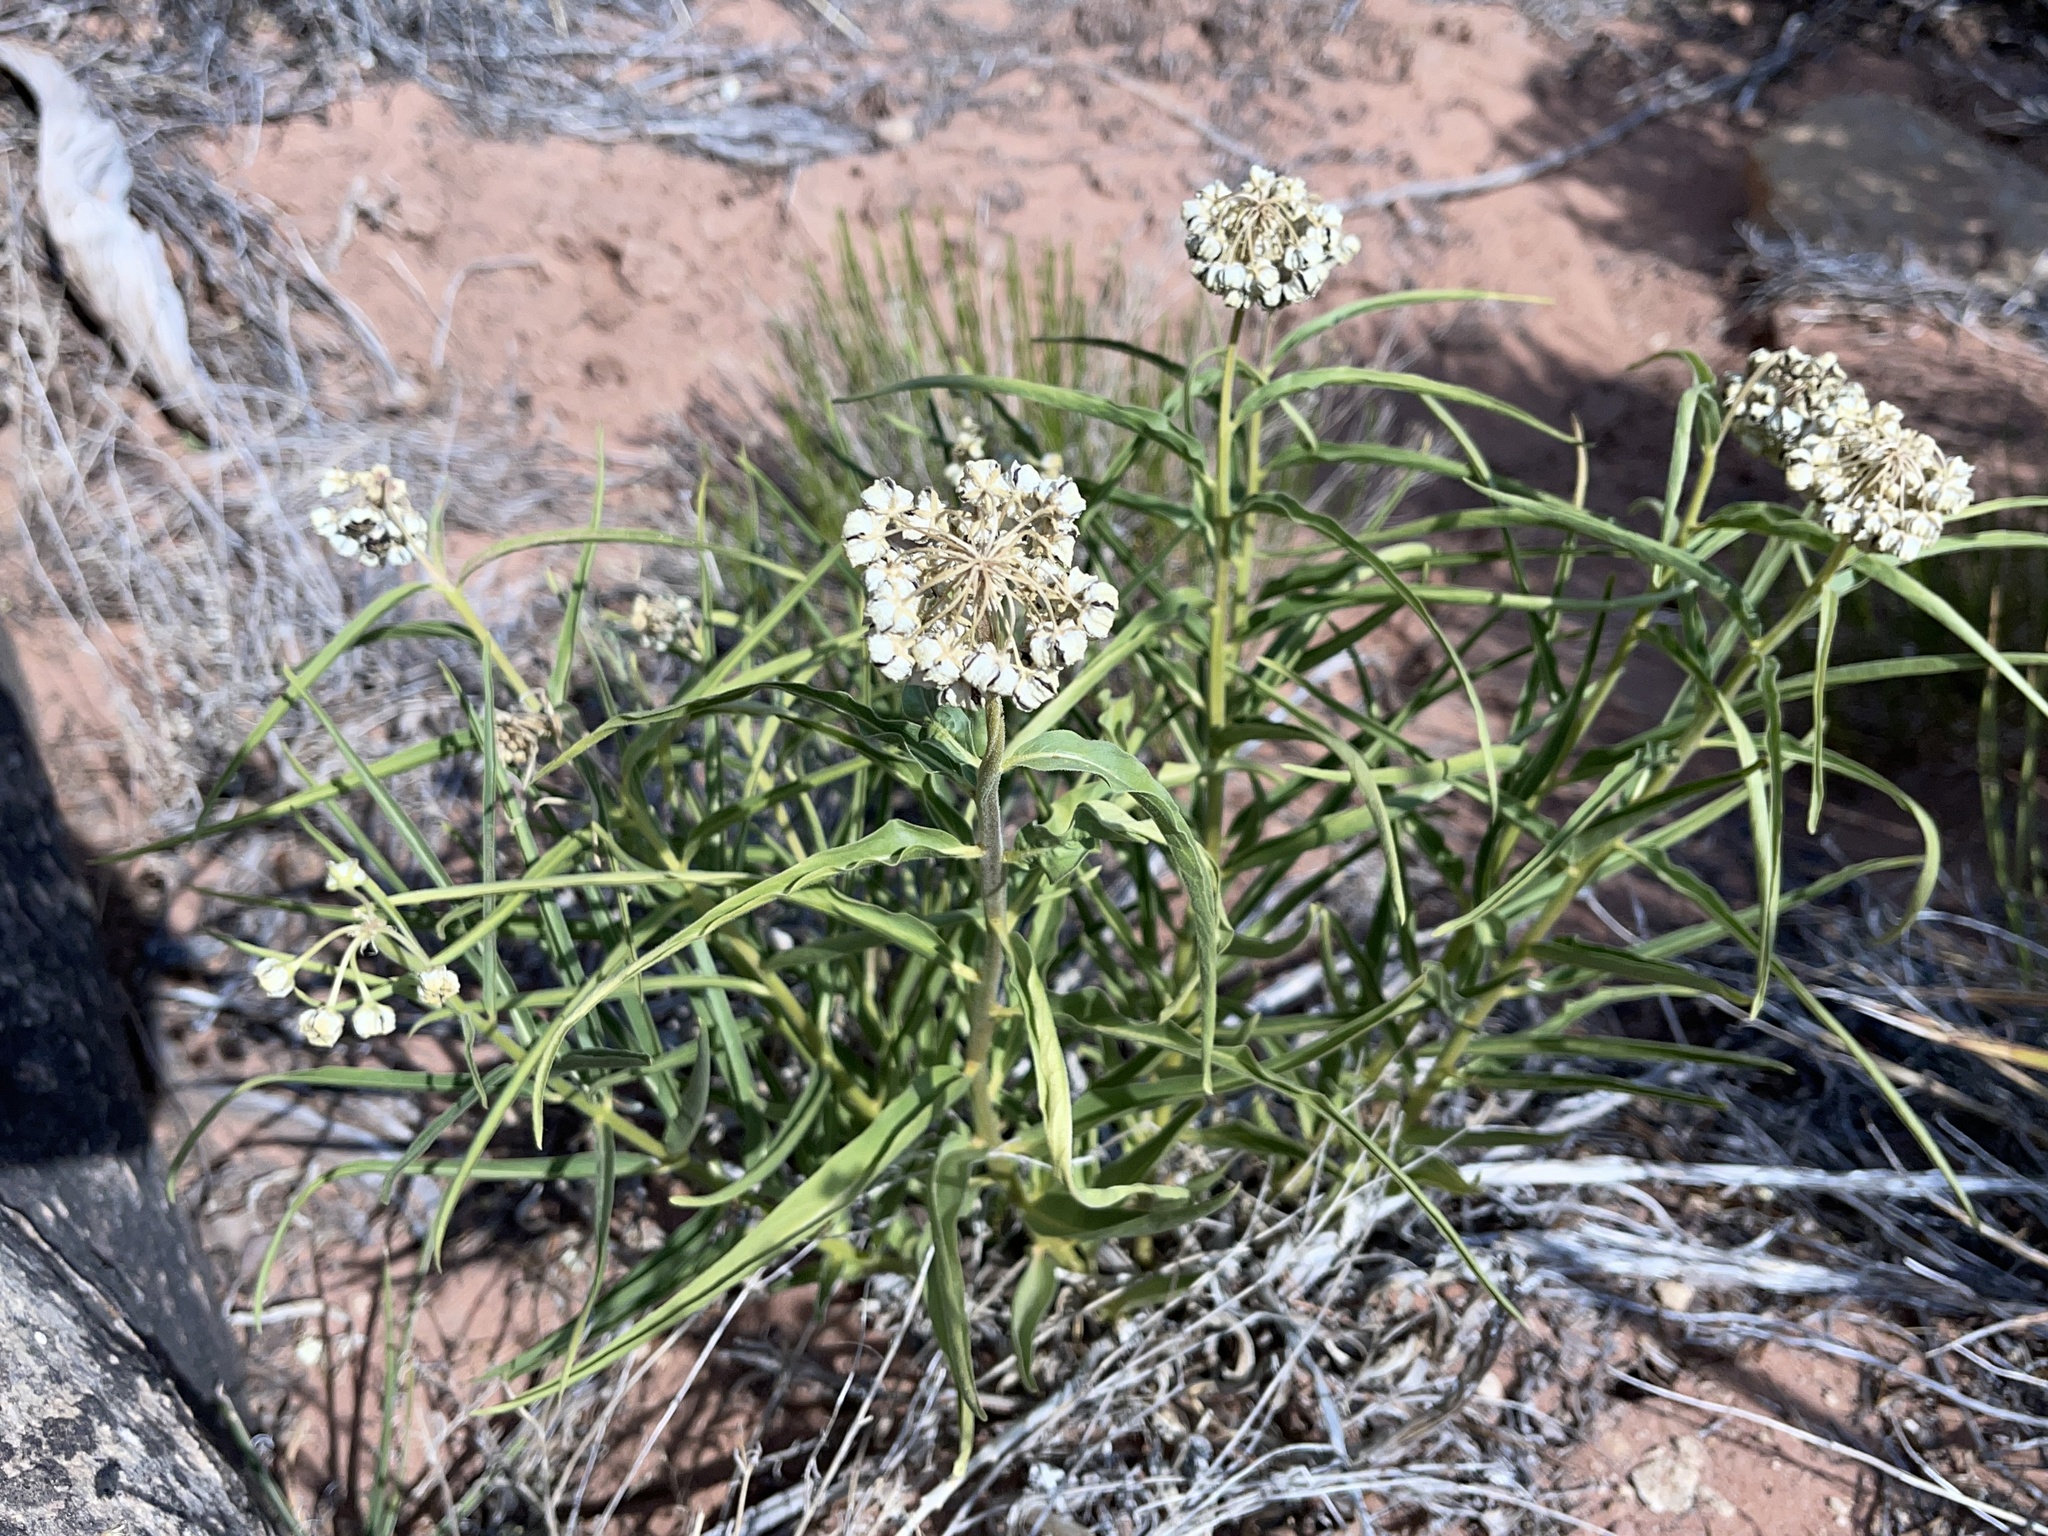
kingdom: Plantae
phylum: Tracheophyta
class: Magnoliopsida
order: Gentianales
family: Apocynaceae
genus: Asclepias
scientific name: Asclepias asperula
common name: Antelope horns
